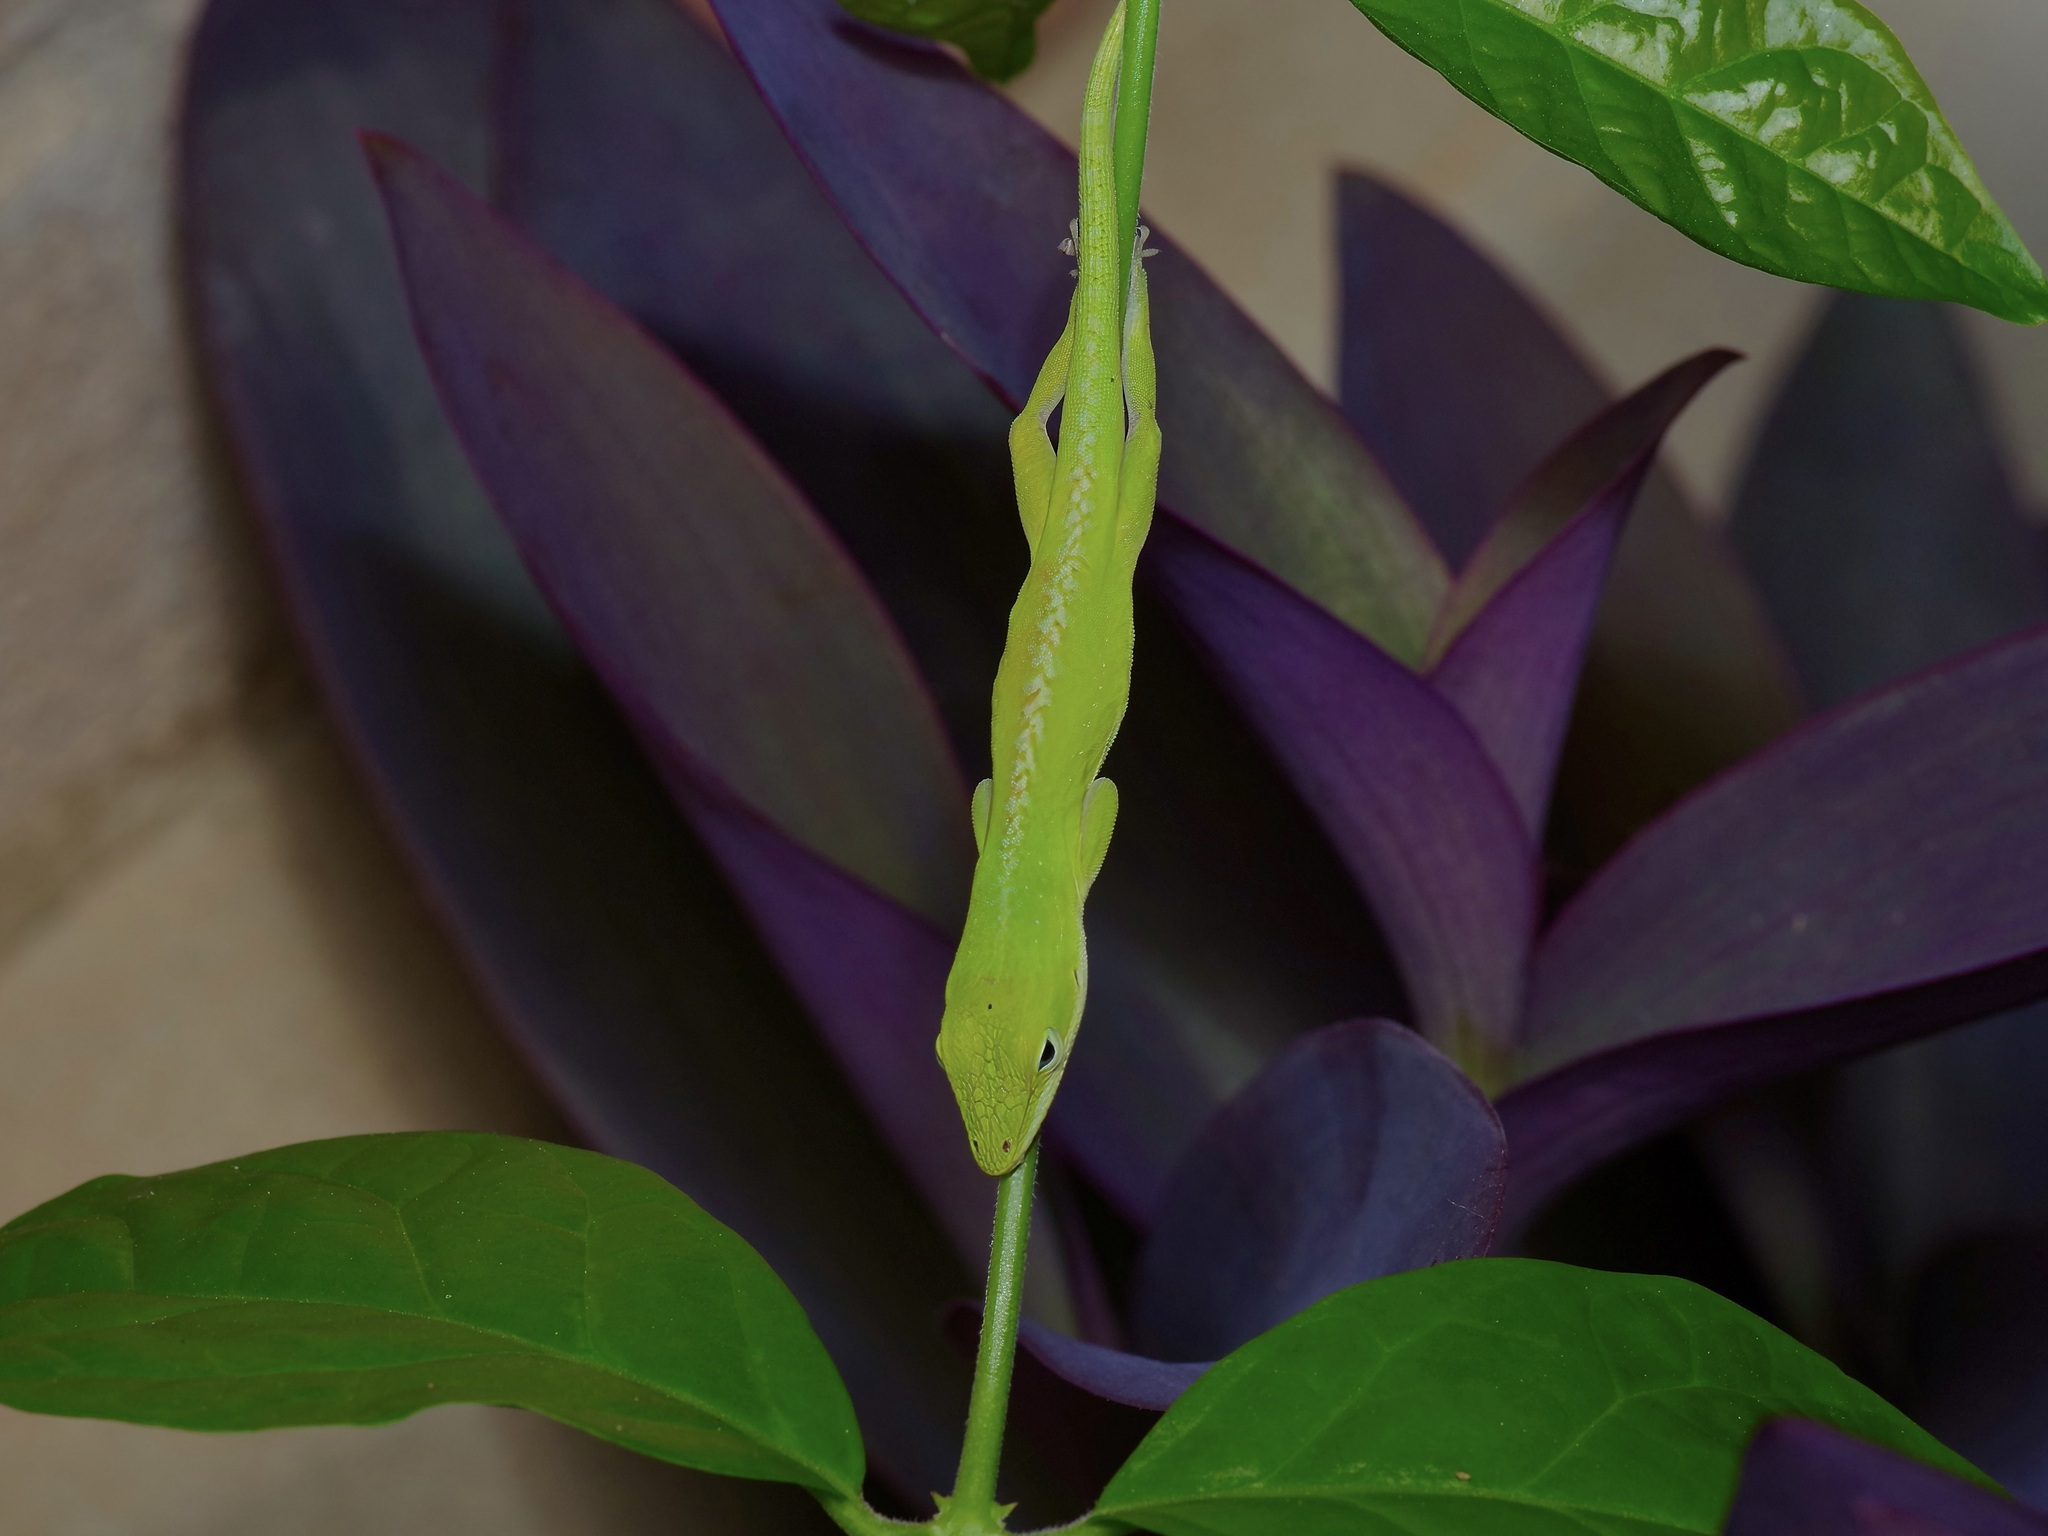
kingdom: Animalia
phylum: Chordata
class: Squamata
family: Dactyloidae
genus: Anolis
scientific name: Anolis carolinensis
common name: Green anole
